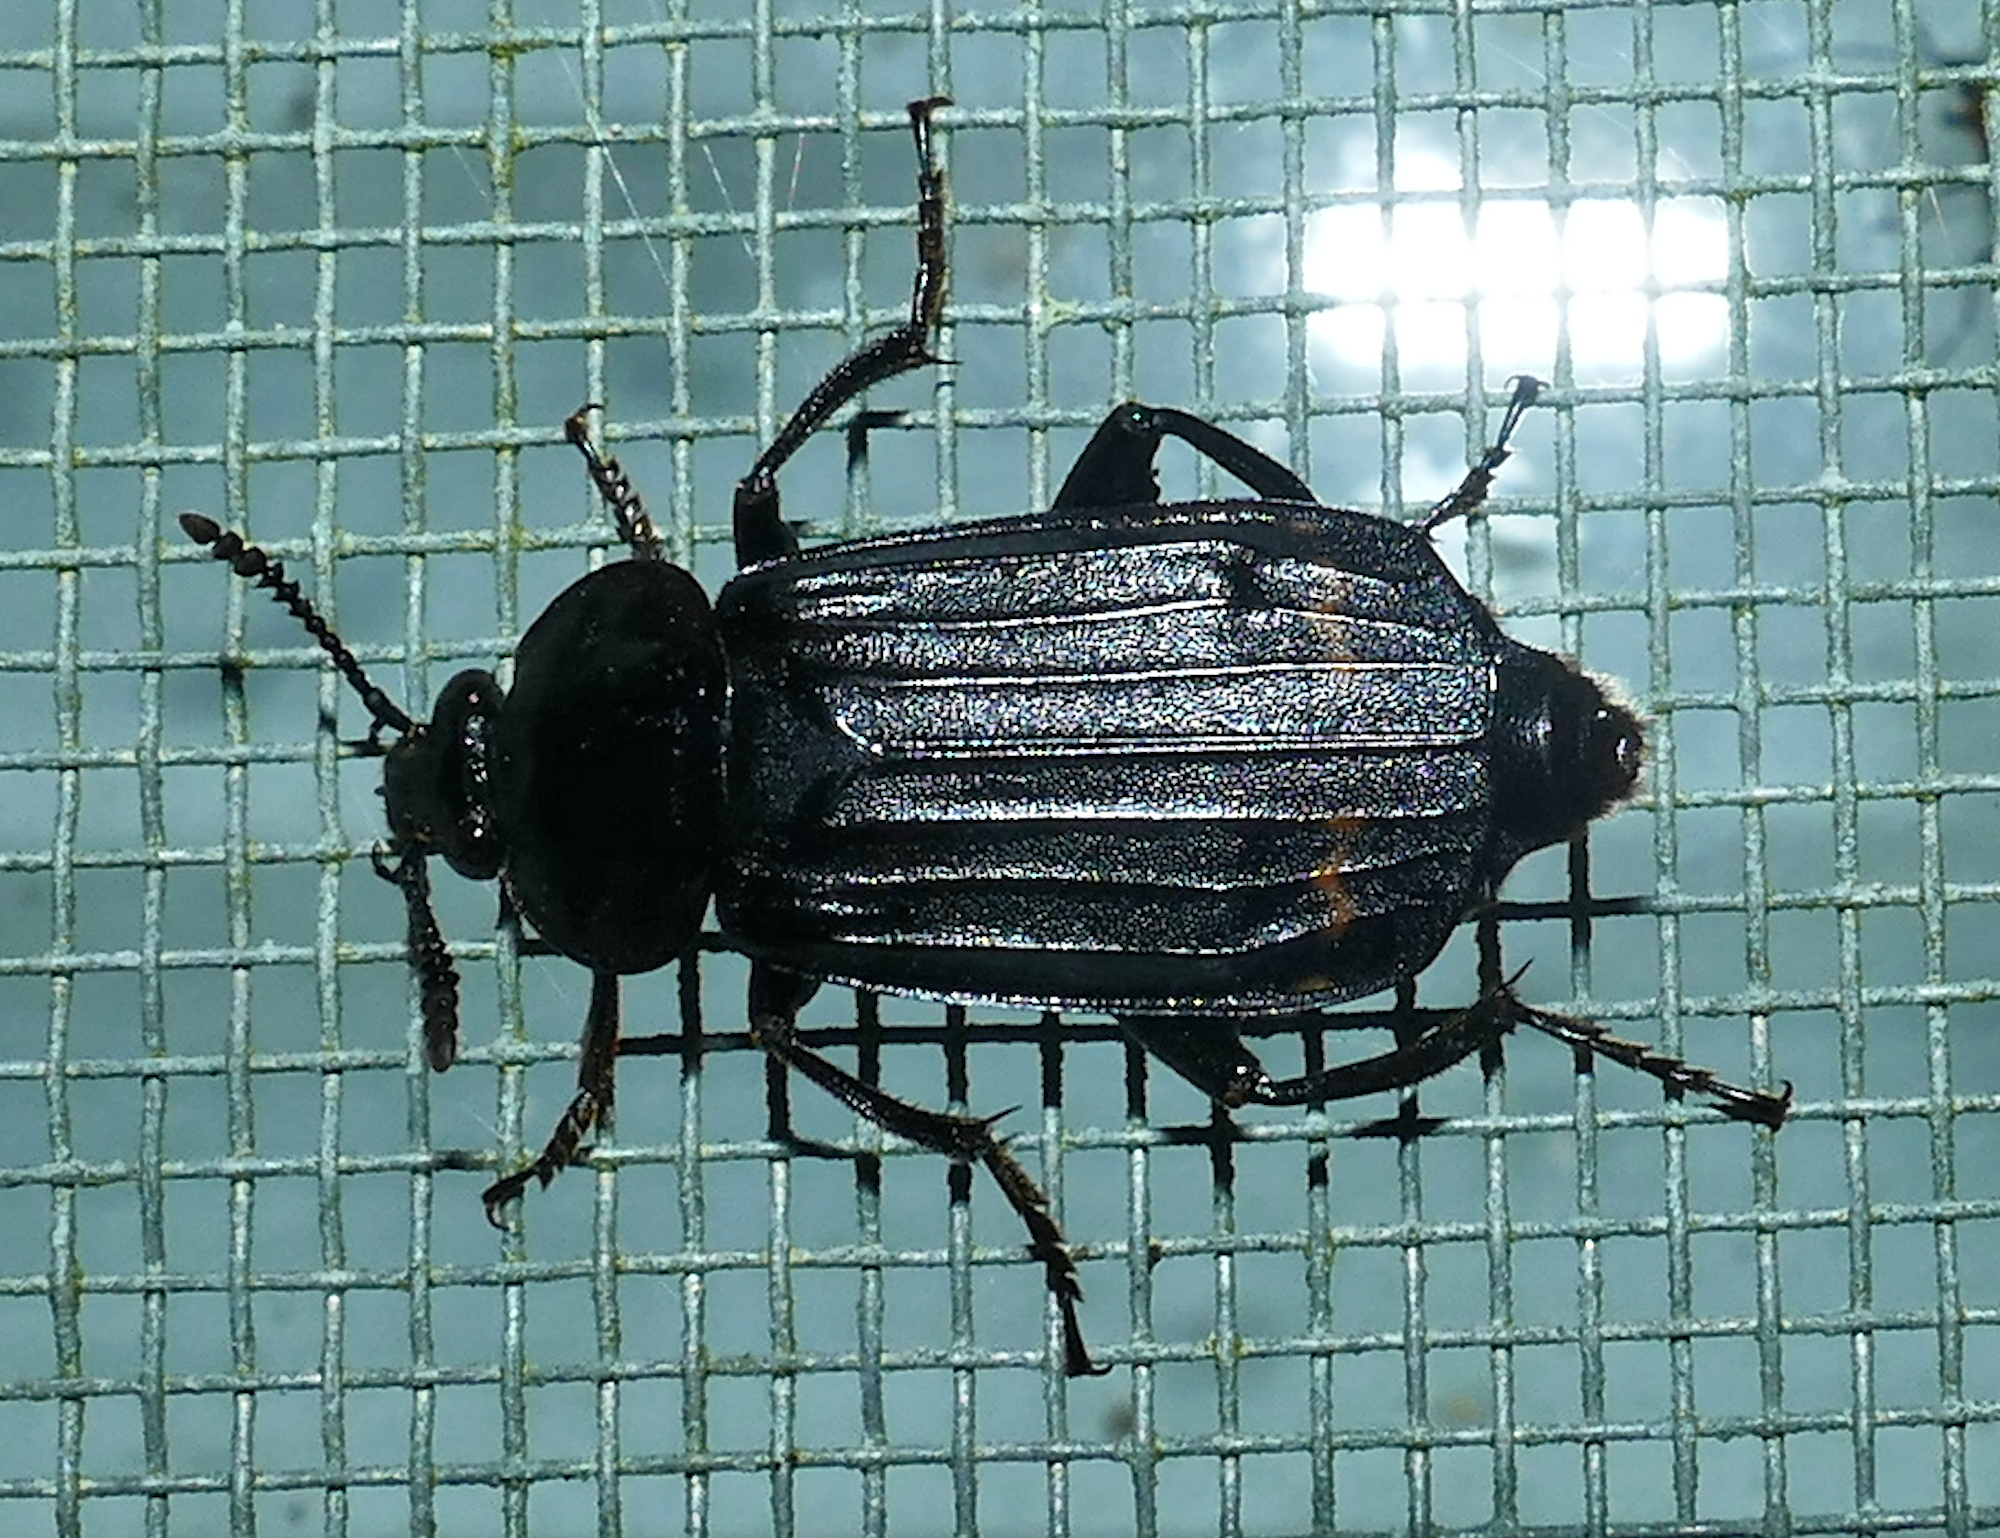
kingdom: Animalia
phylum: Arthropoda
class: Insecta
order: Coleoptera
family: Staphylinidae
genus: Necrodes
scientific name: Necrodes surinamensis
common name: Red-lined carrion beetle
